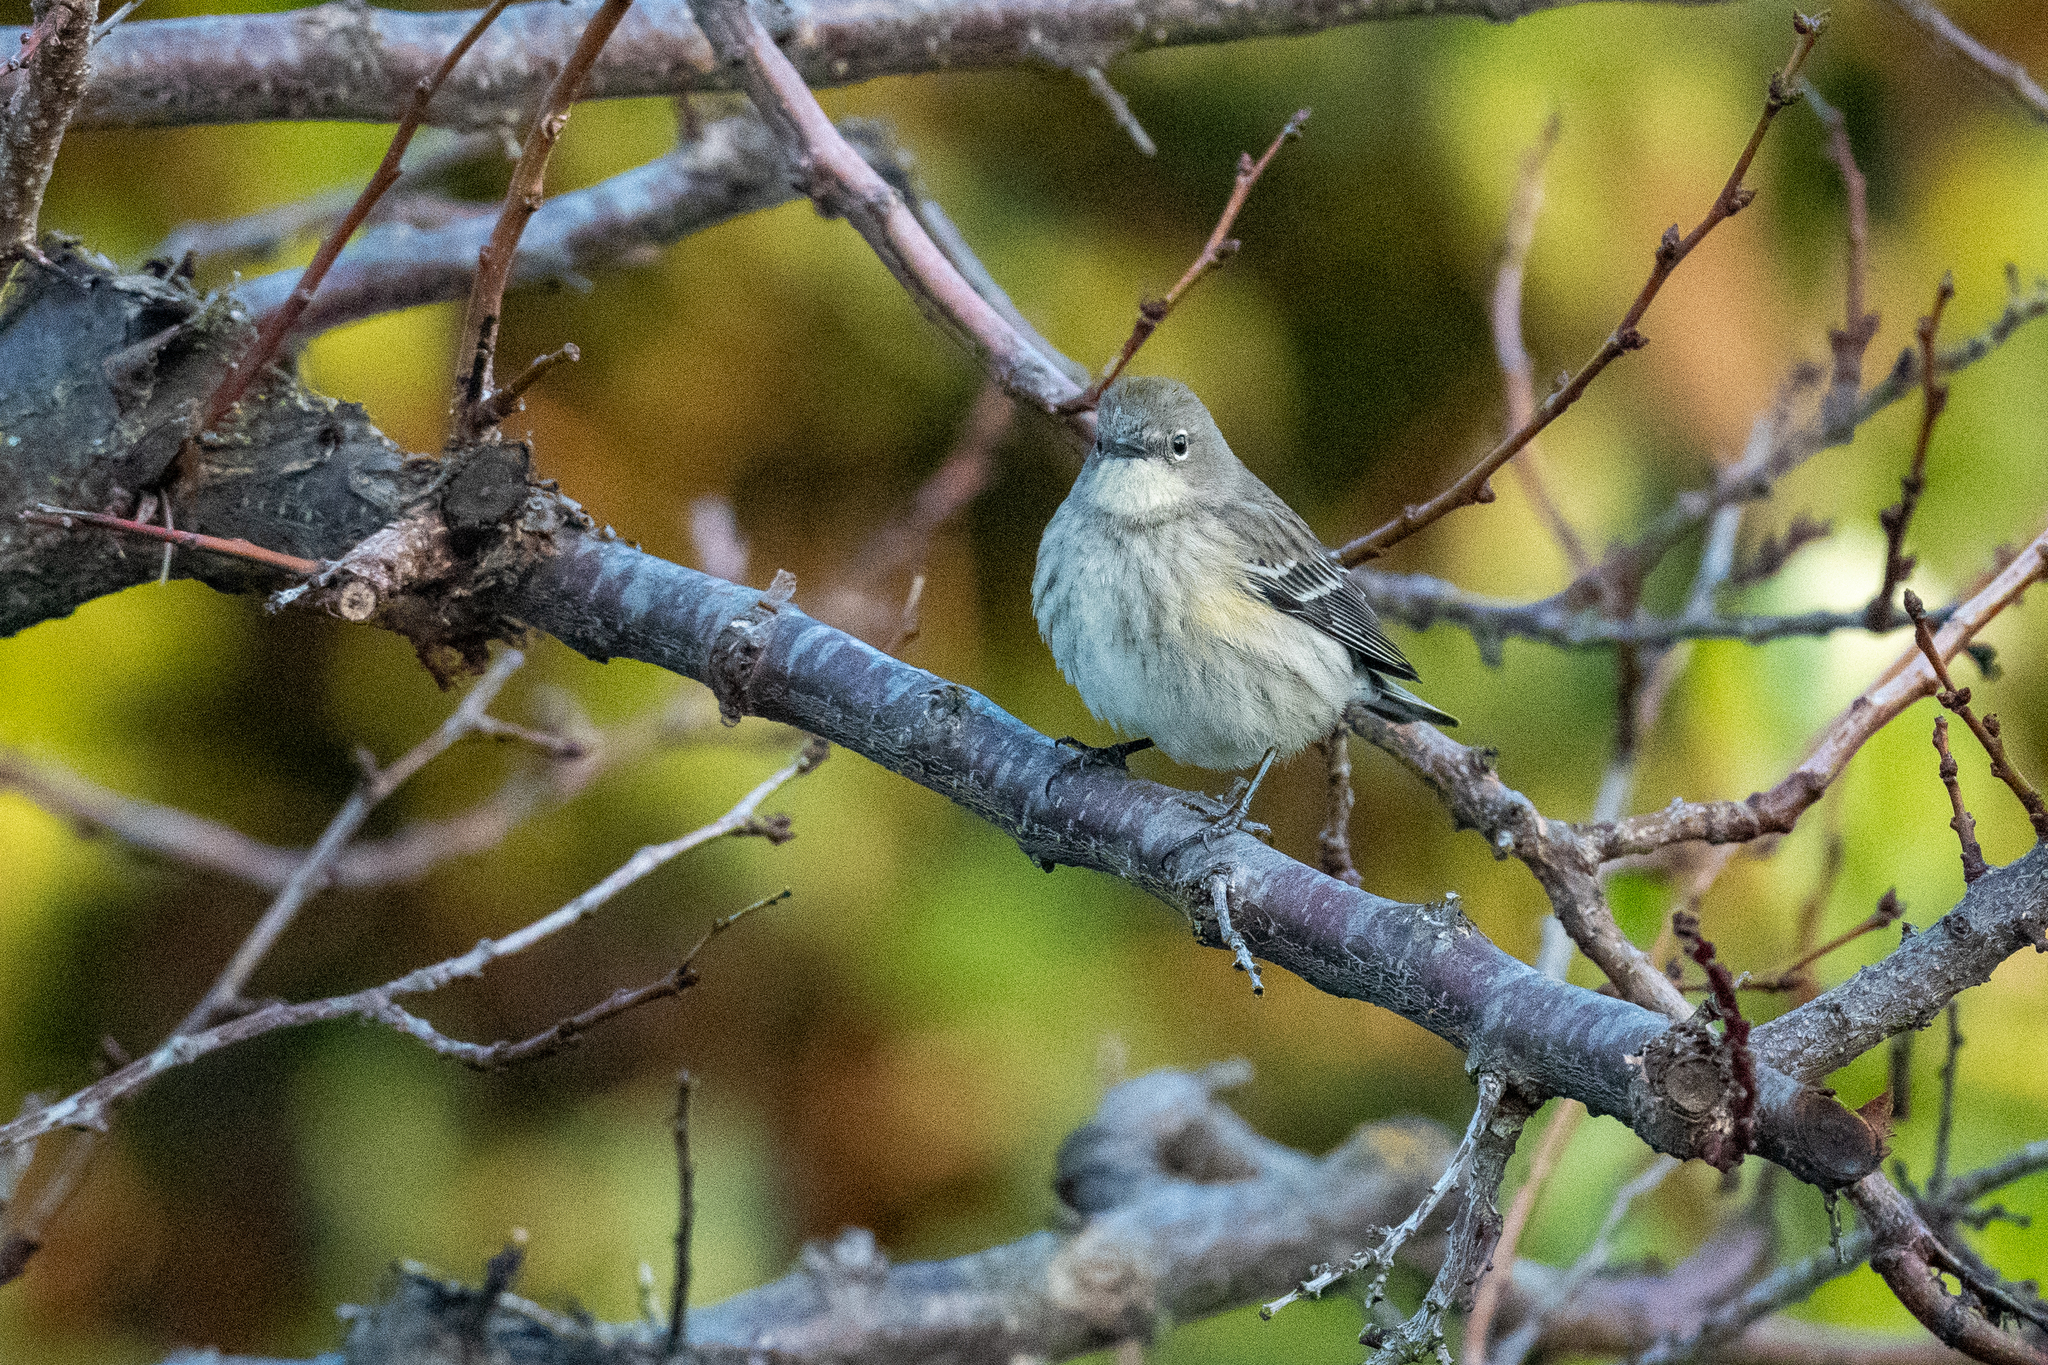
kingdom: Animalia
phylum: Chordata
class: Aves
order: Passeriformes
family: Parulidae
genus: Setophaga
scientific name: Setophaga coronata
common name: Myrtle warbler
